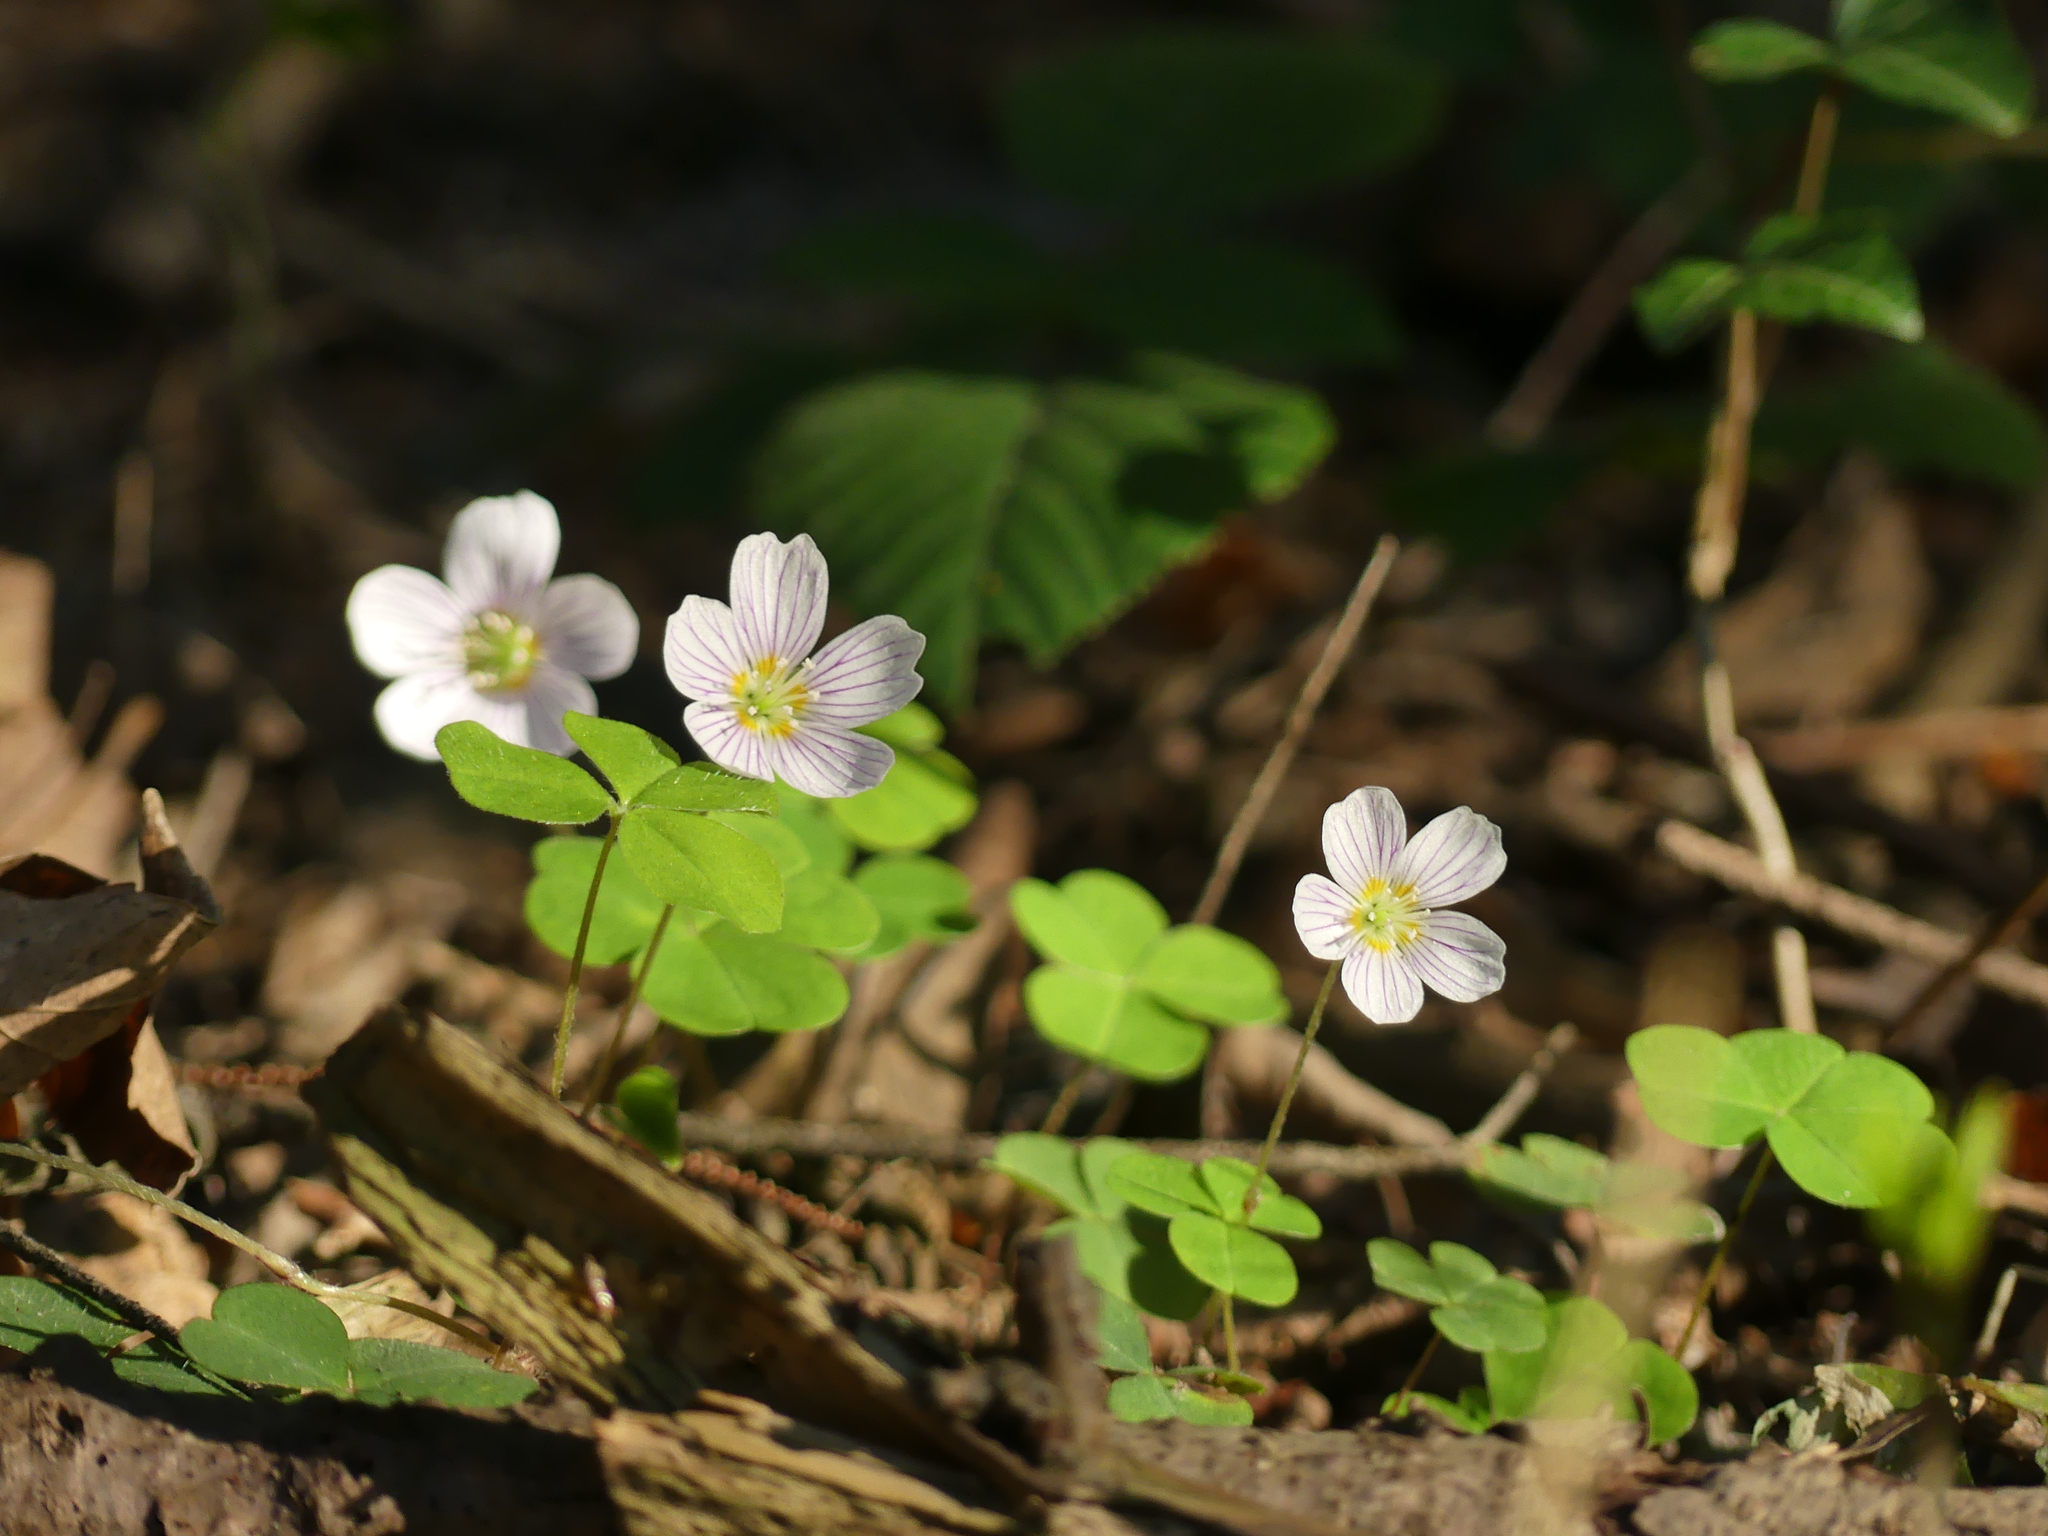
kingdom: Plantae
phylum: Tracheophyta
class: Magnoliopsida
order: Oxalidales
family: Oxalidaceae
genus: Oxalis
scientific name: Oxalis acetosella
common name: Wood-sorrel
